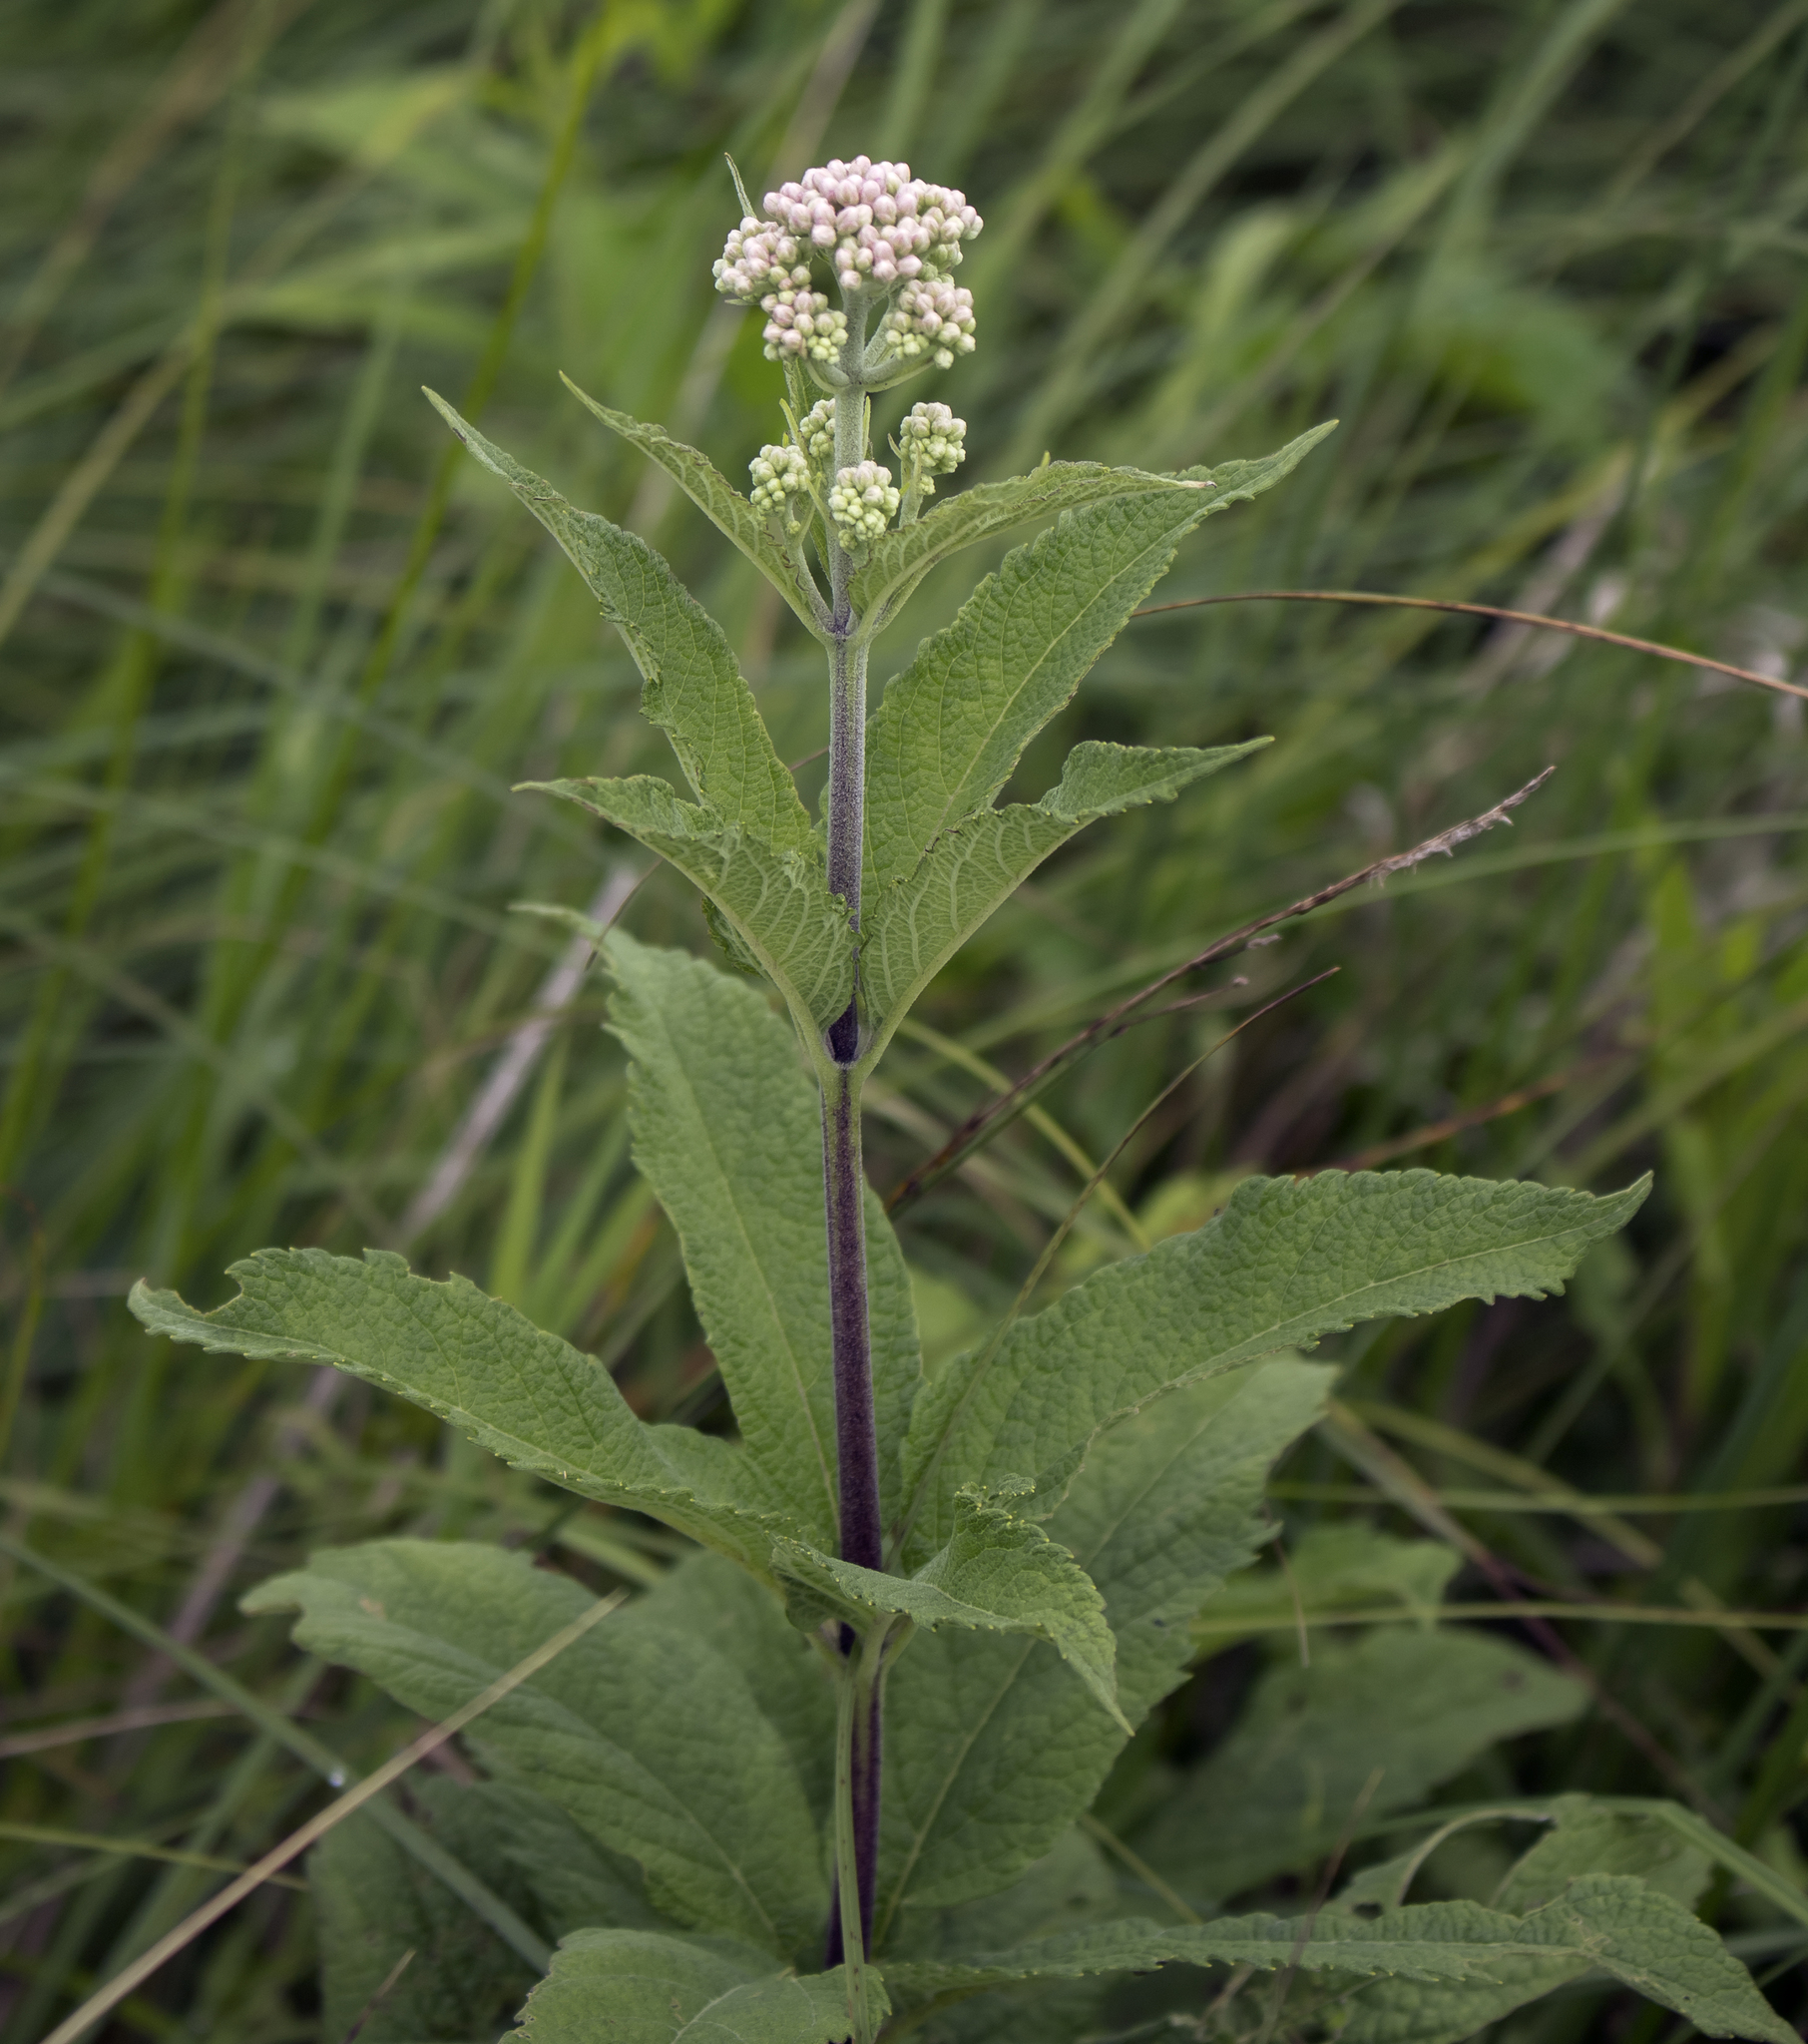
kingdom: Plantae
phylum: Tracheophyta
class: Magnoliopsida
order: Asterales
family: Asteraceae
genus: Eutrochium
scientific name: Eutrochium maculatum
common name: Spotted joe pye weed
